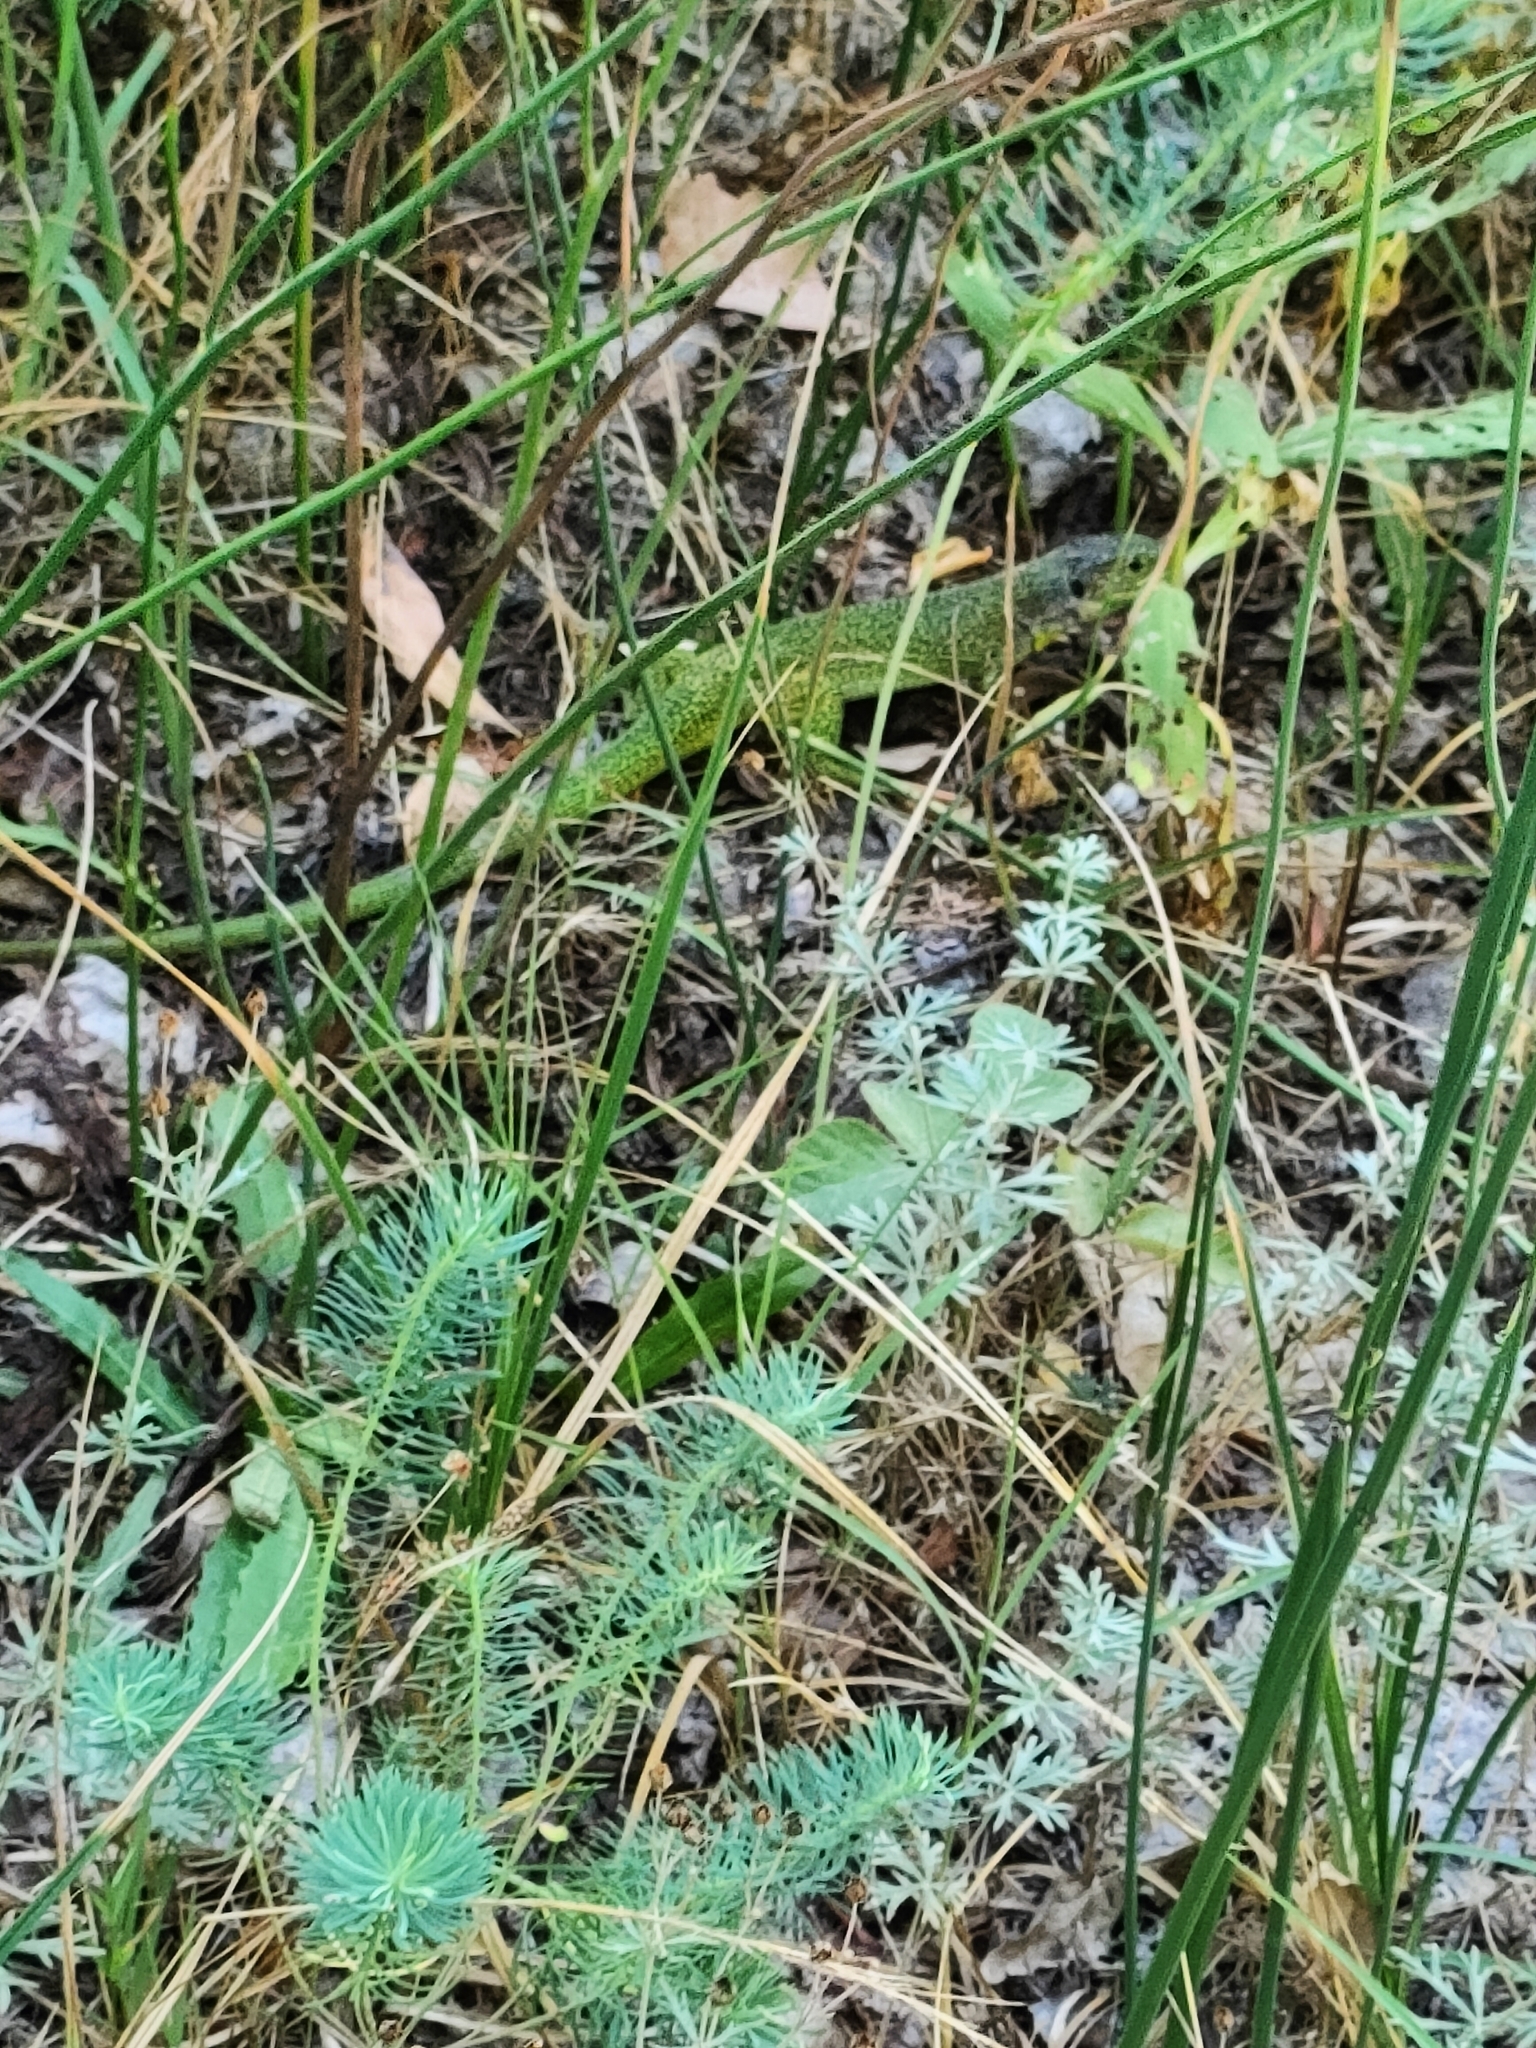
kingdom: Animalia
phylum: Chordata
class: Squamata
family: Lacertidae
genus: Lacerta
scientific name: Lacerta bilineata
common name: Western green lizard
